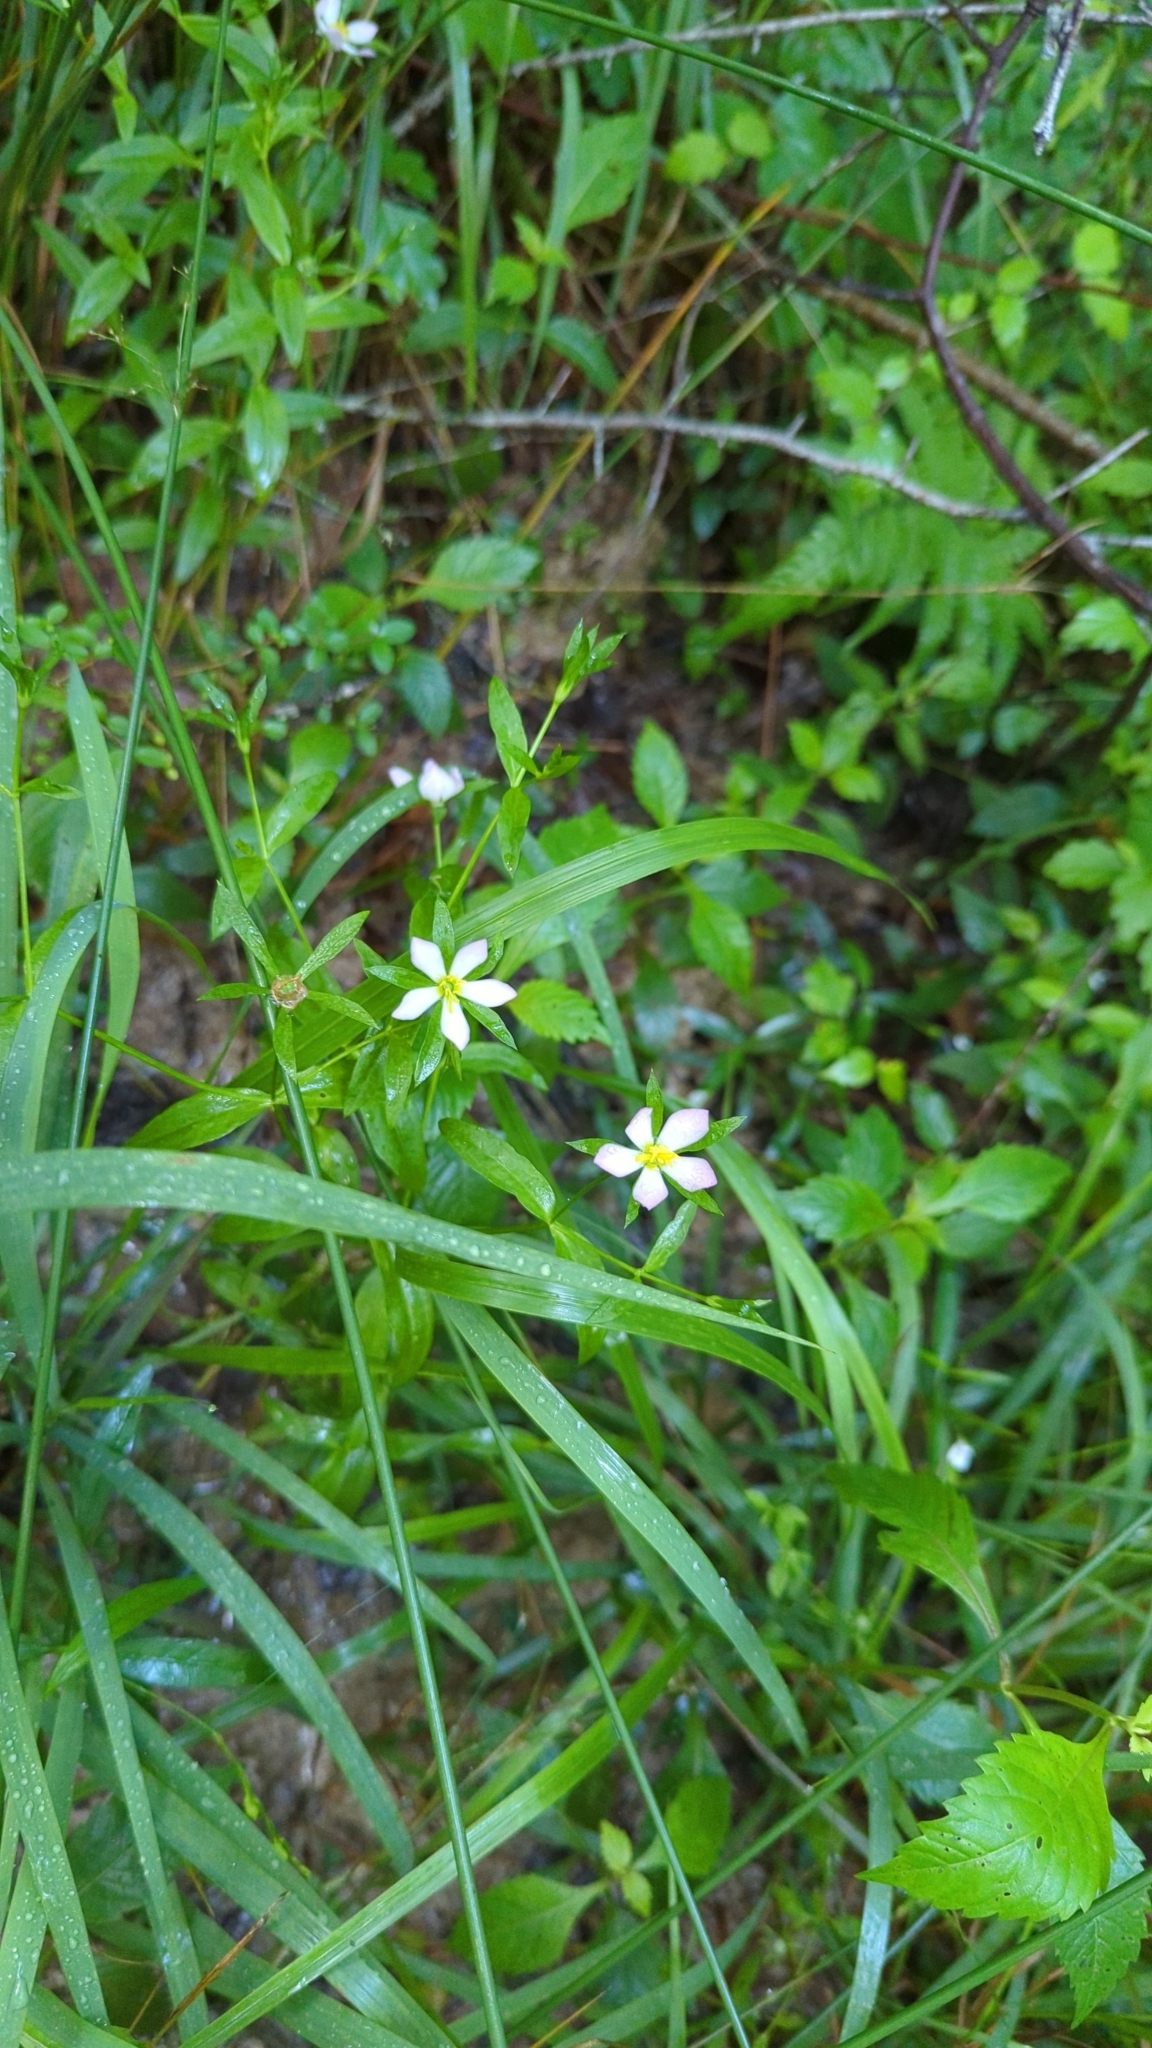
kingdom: Plantae
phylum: Tracheophyta
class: Magnoliopsida
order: Gentianales
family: Gentianaceae
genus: Sabatia
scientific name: Sabatia calycina
